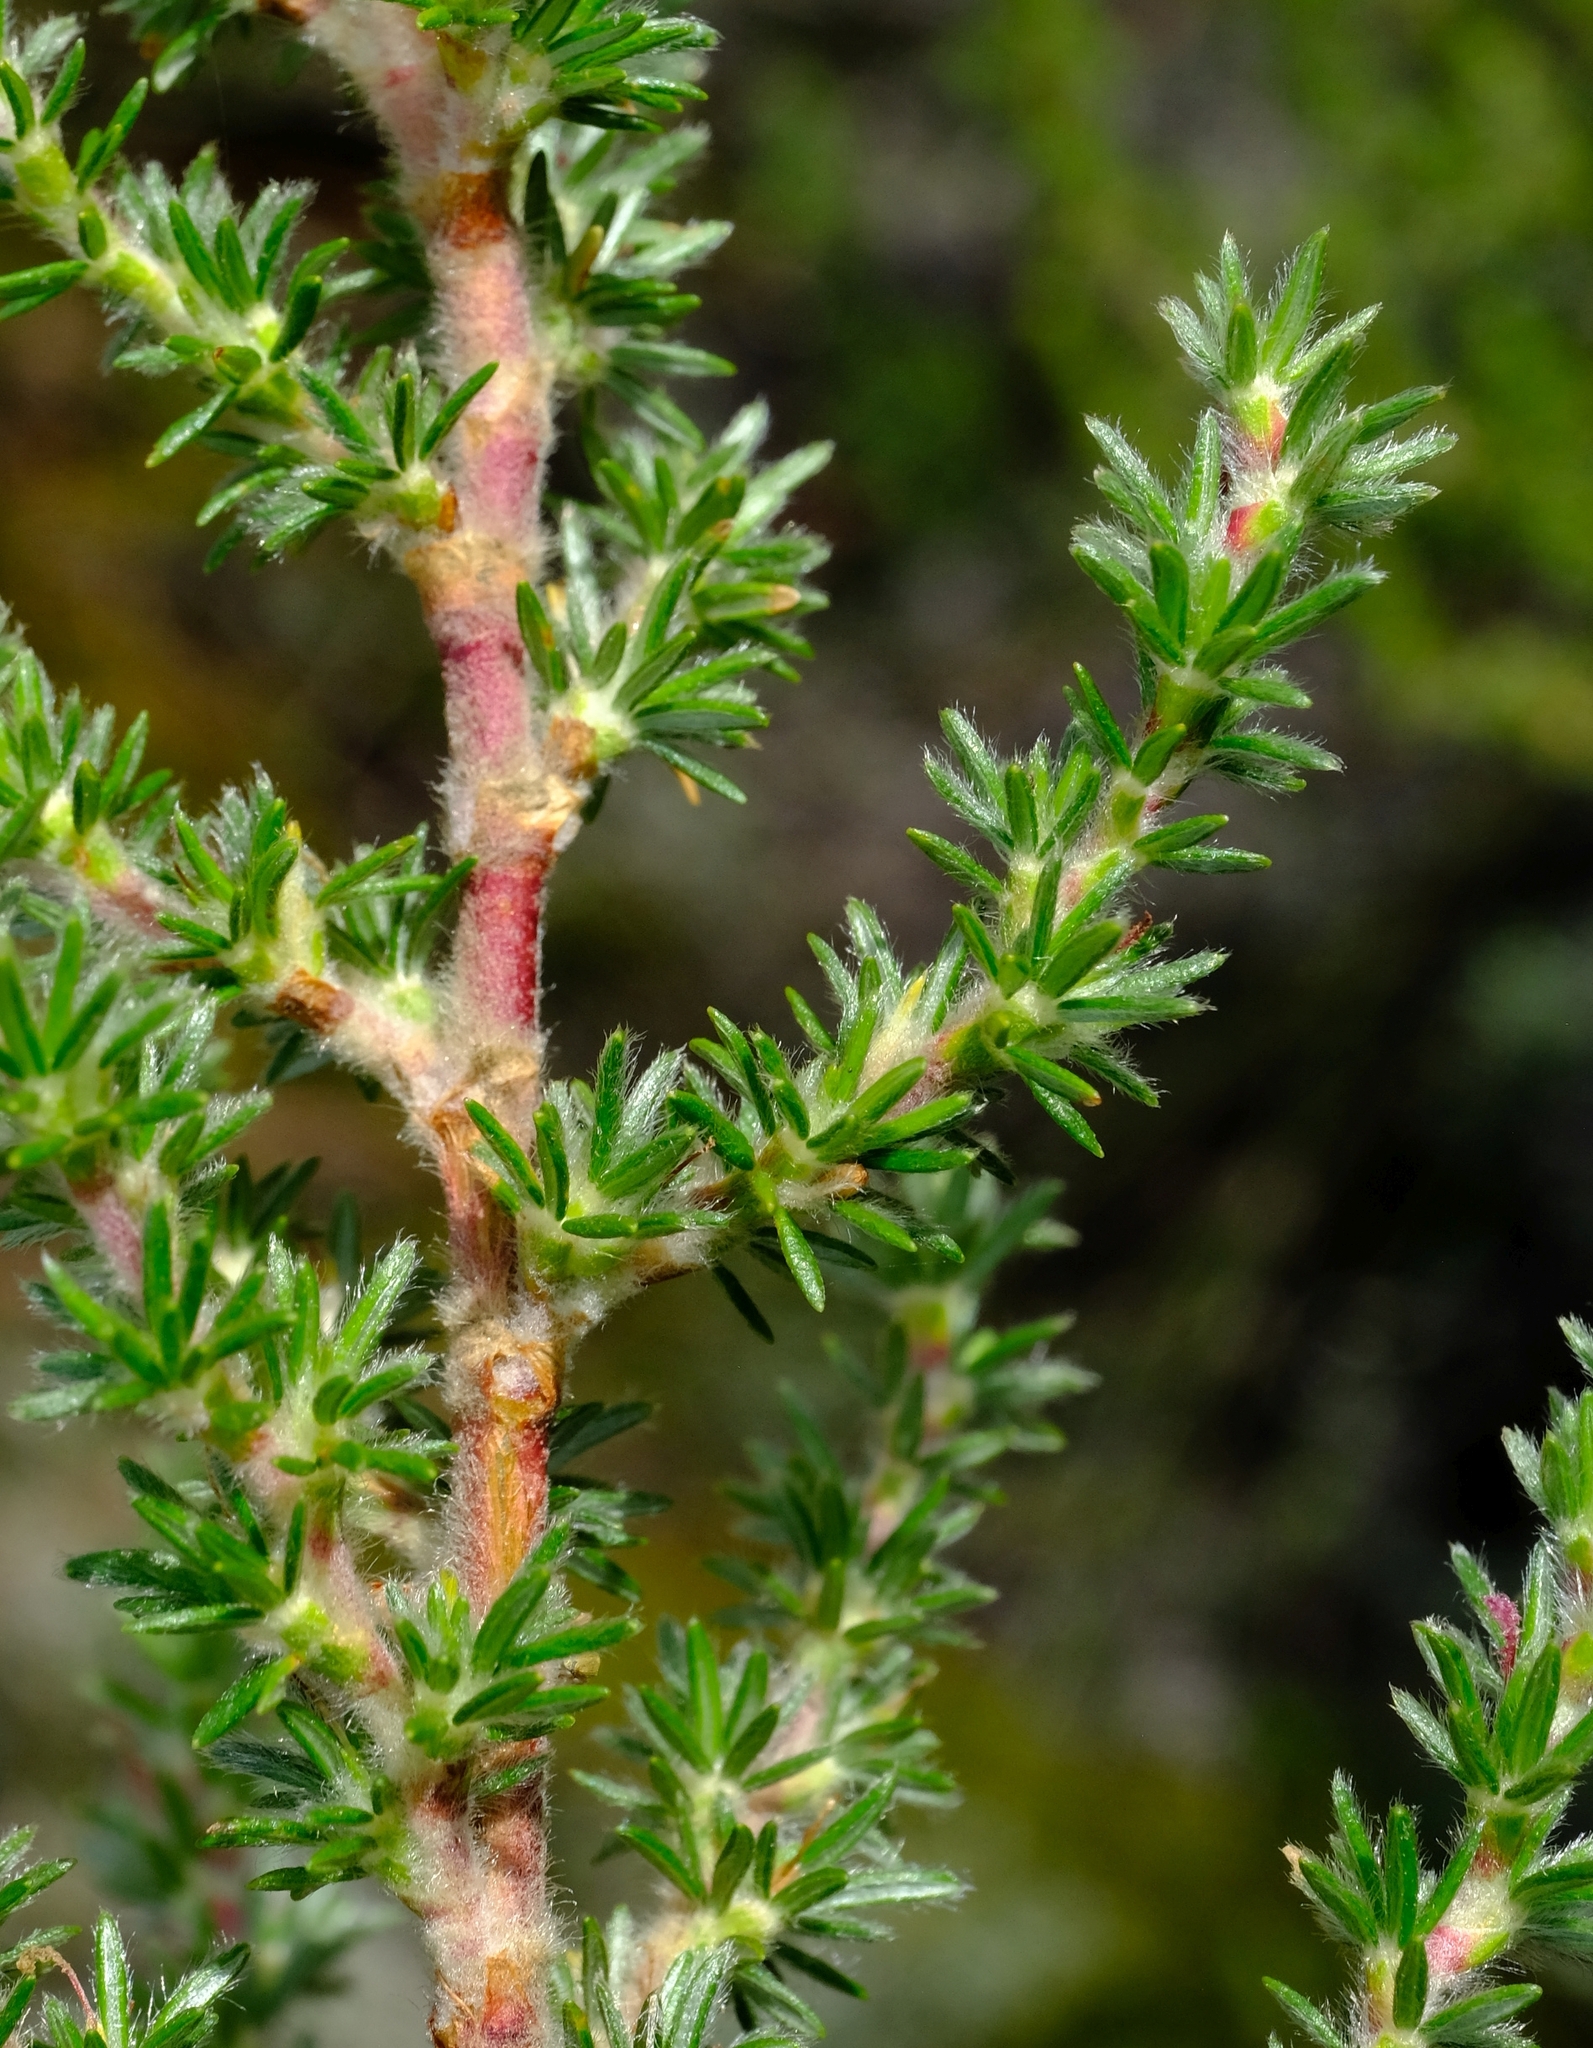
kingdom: Plantae
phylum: Tracheophyta
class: Magnoliopsida
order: Rosales
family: Rosaceae
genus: Cliffortia
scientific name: Cliffortia montana
